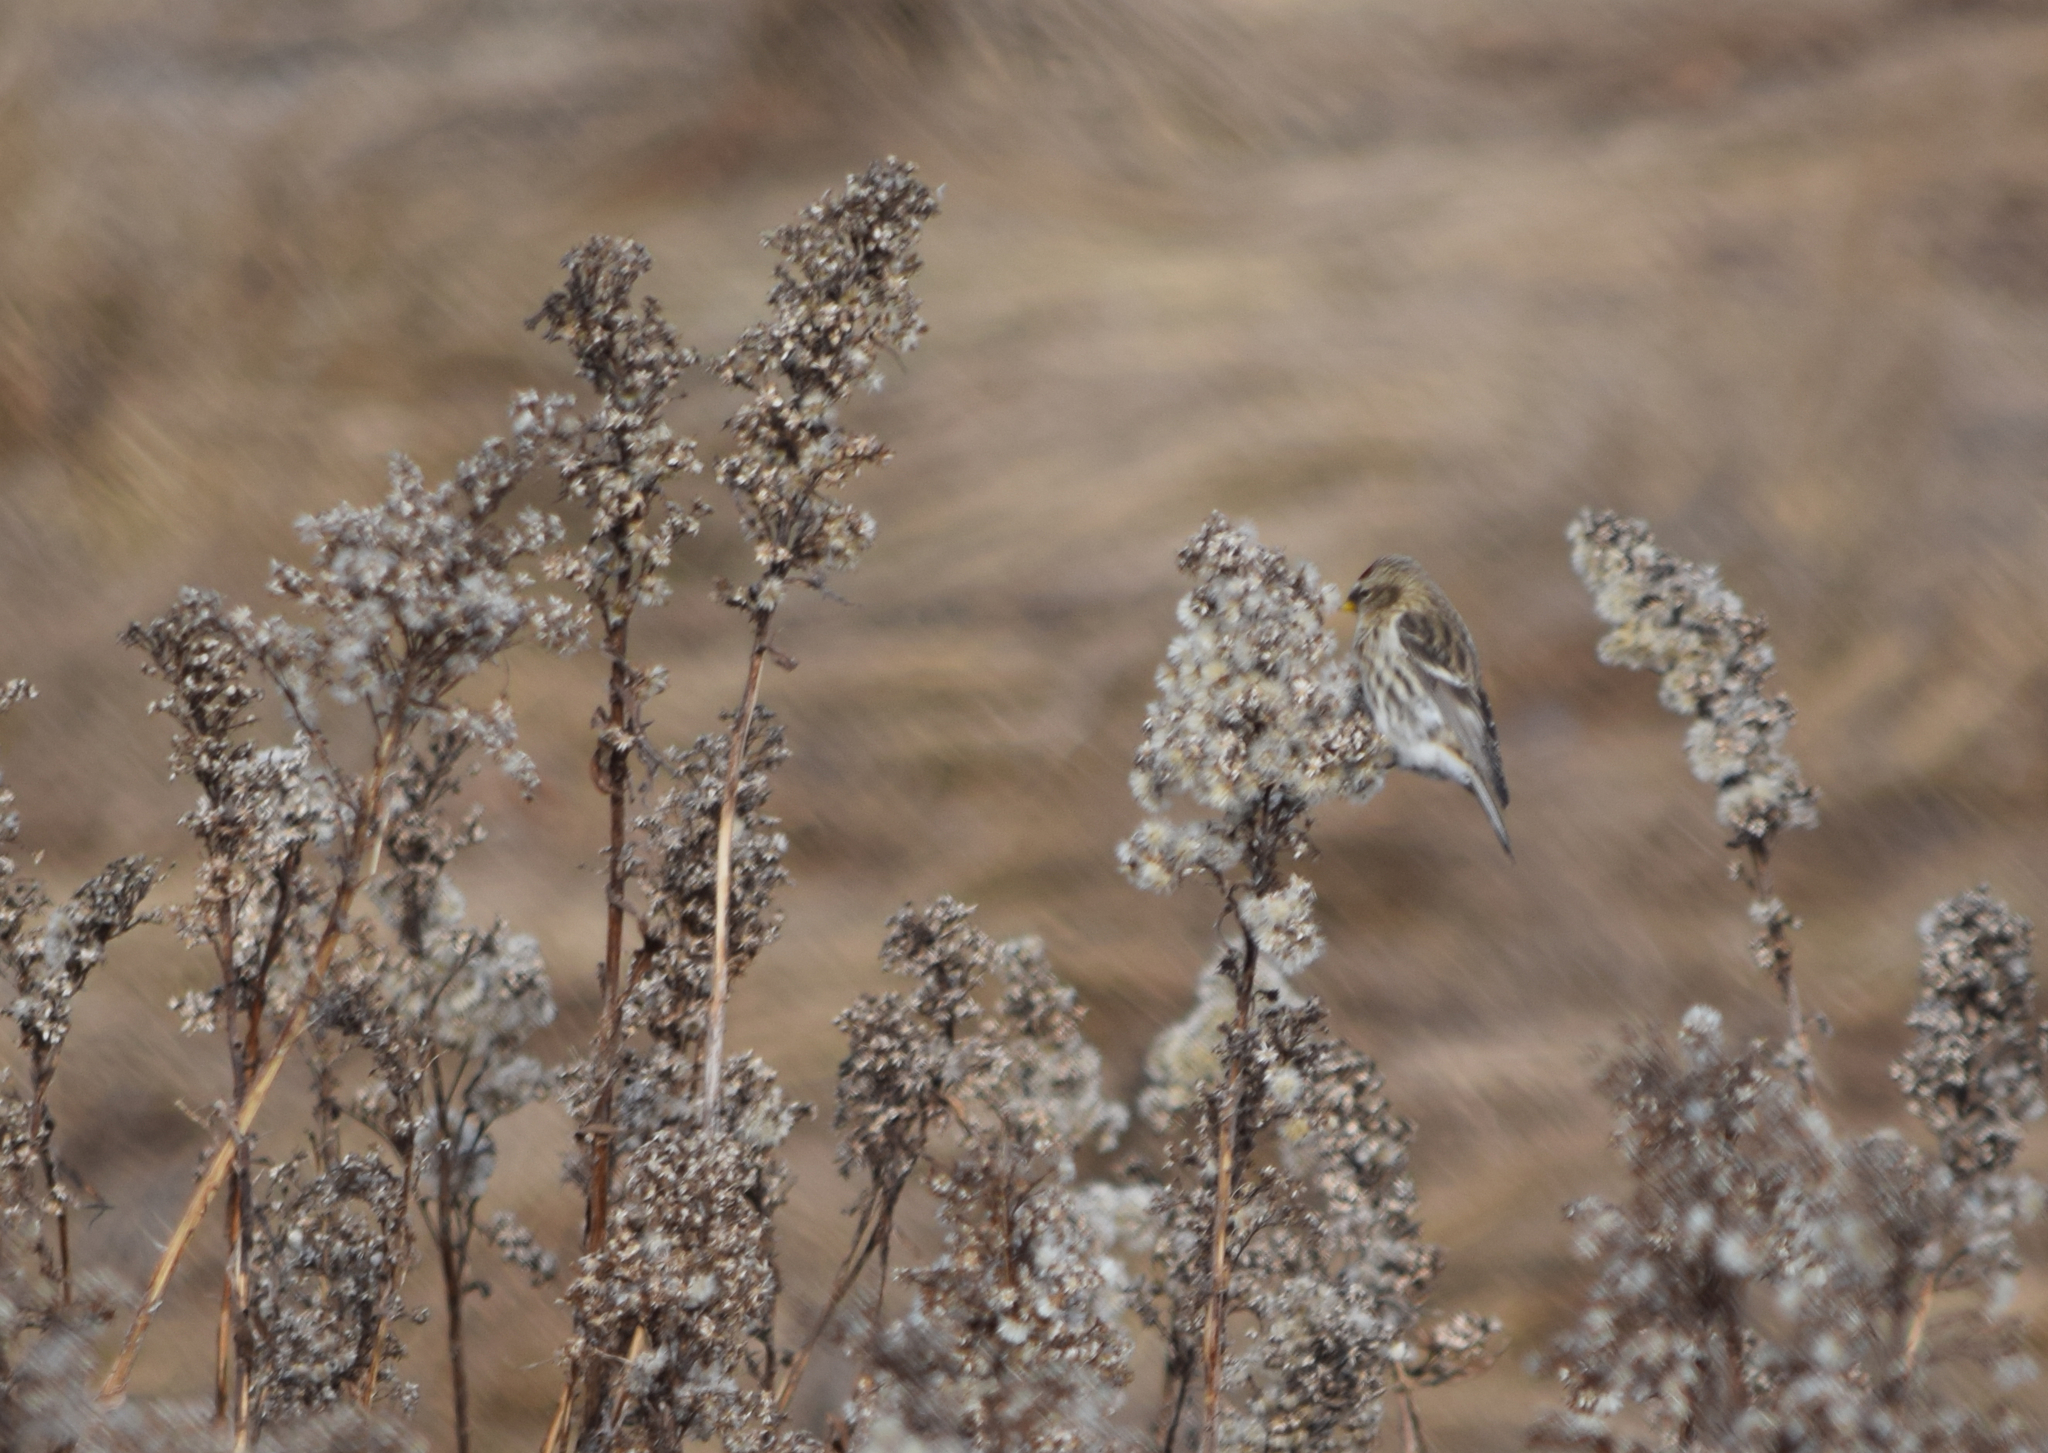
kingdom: Animalia
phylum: Chordata
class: Aves
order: Passeriformes
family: Fringillidae
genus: Acanthis
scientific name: Acanthis flammea
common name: Common redpoll
